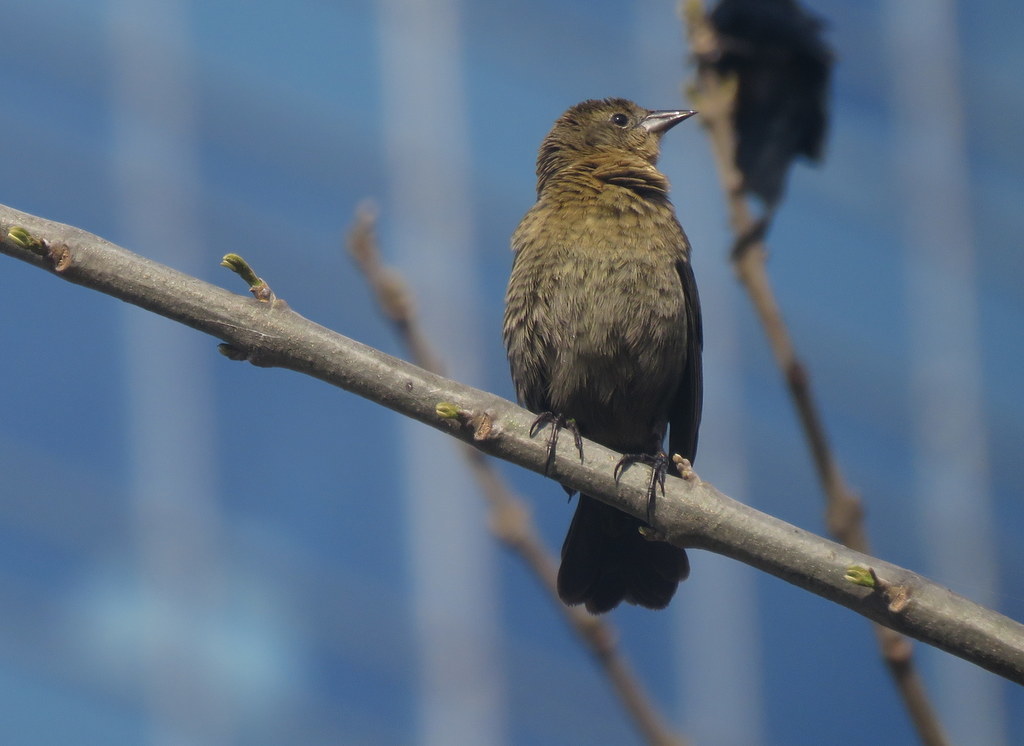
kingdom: Animalia
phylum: Chordata
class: Aves
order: Passeriformes
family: Icteridae
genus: Chrysomus
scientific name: Chrysomus ruficapillus
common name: Chestnut-capped blackbird
